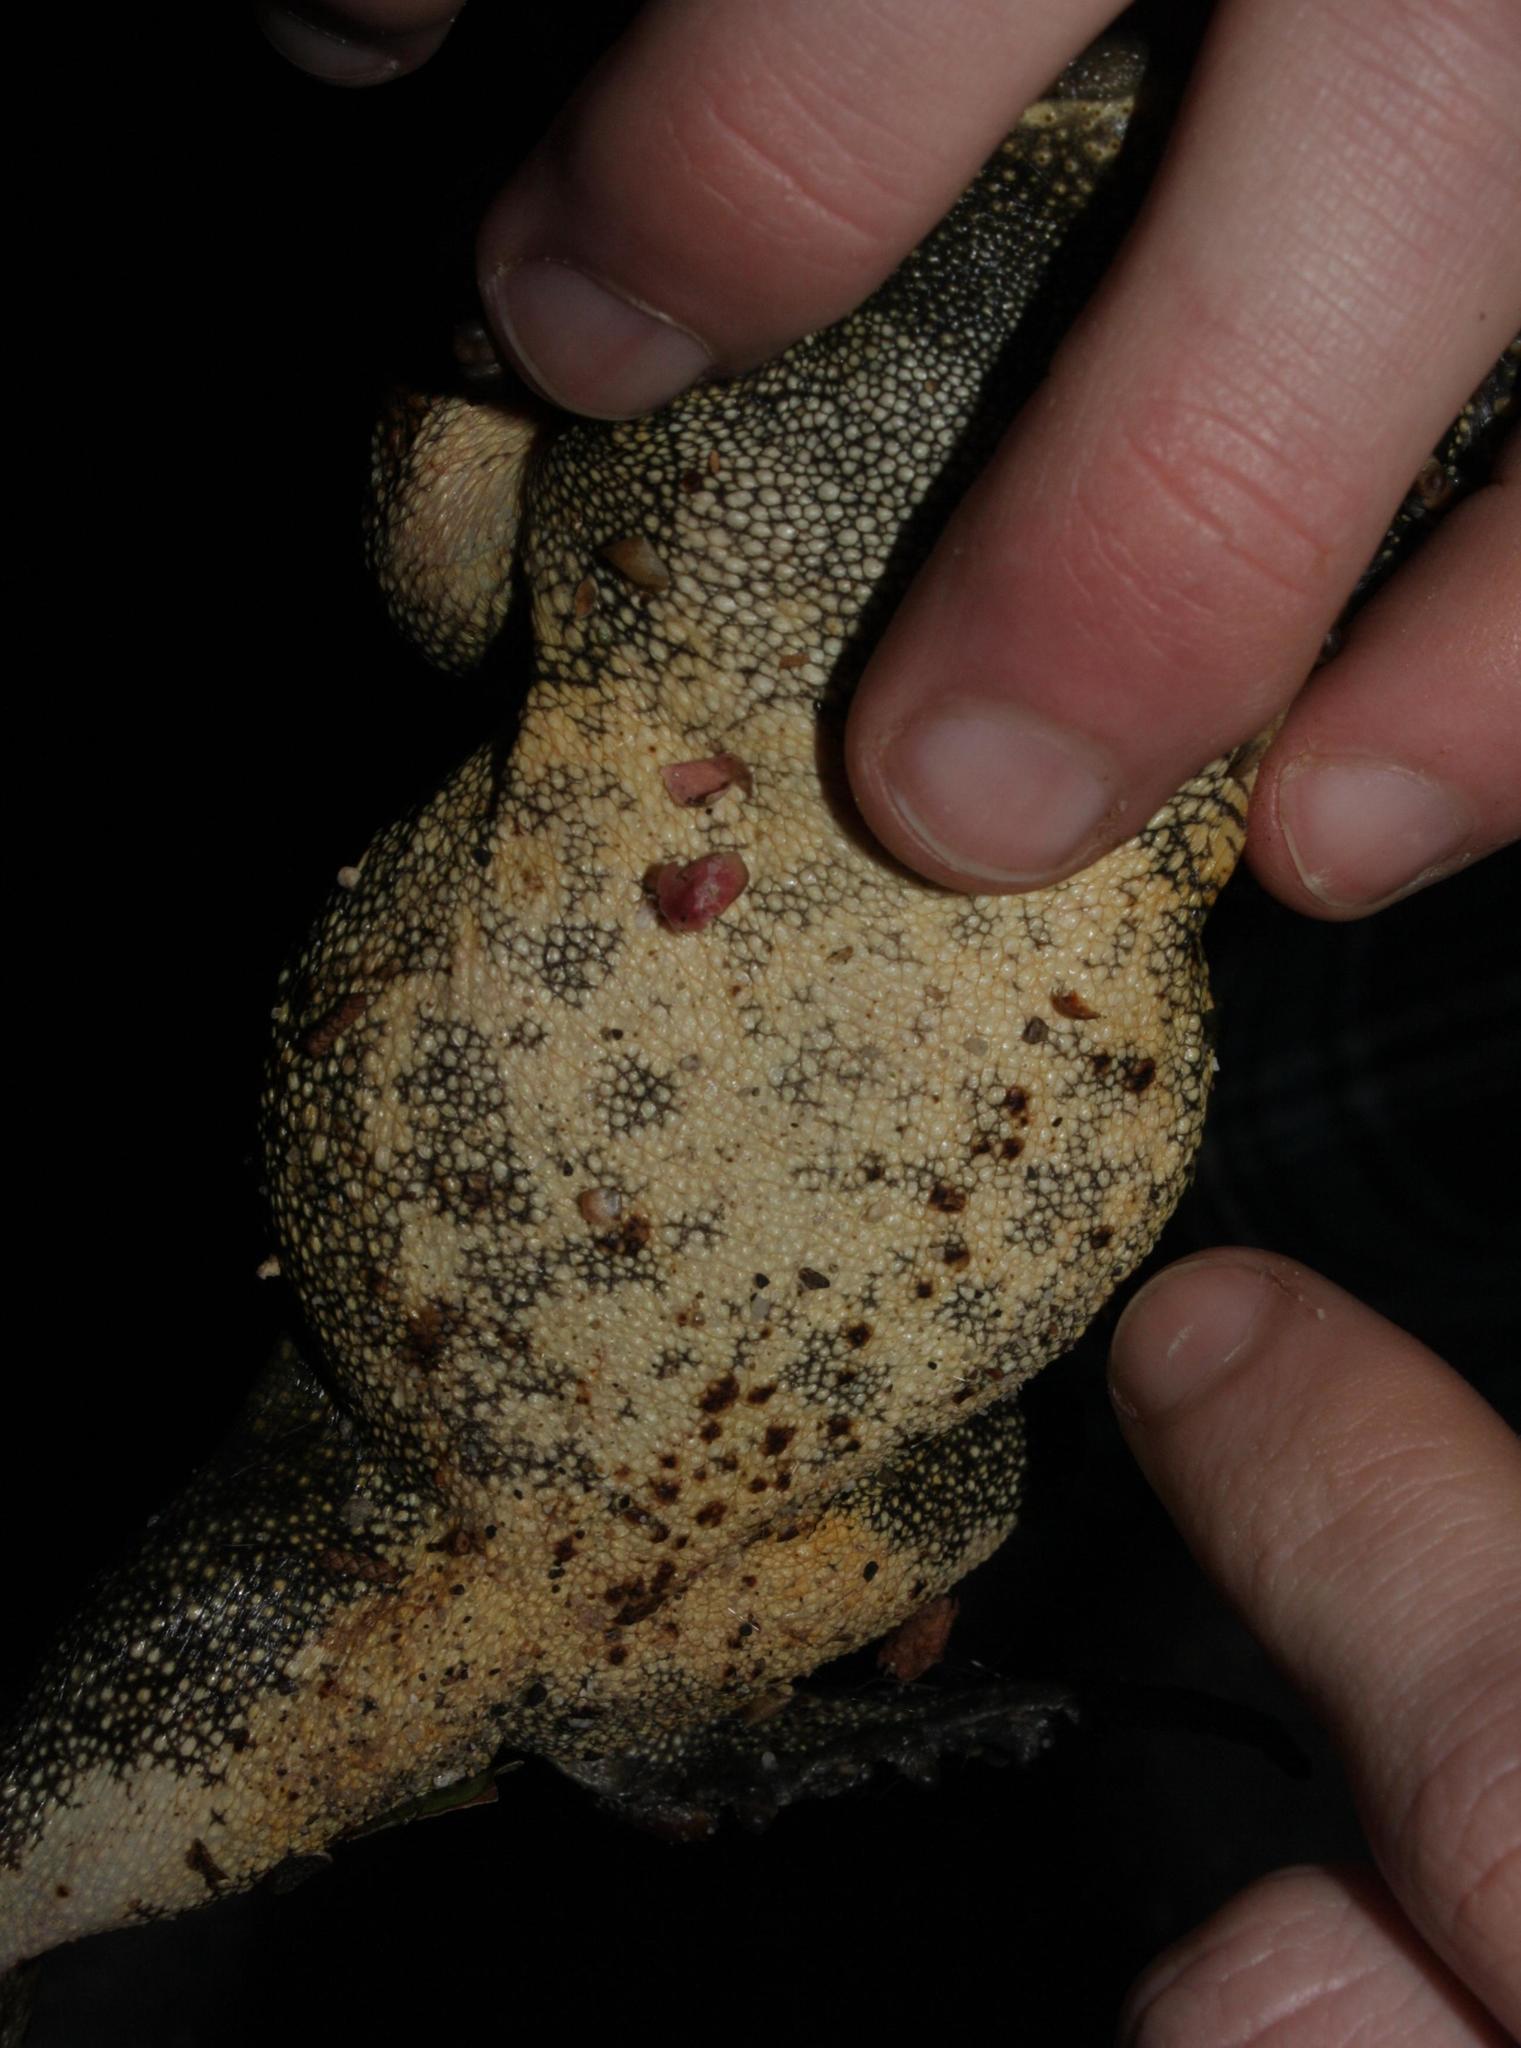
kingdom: Animalia
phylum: Chordata
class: Amphibia
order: Anura
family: Bufonidae
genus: Sclerophrys
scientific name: Sclerophrys pantherina
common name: Panther toad
